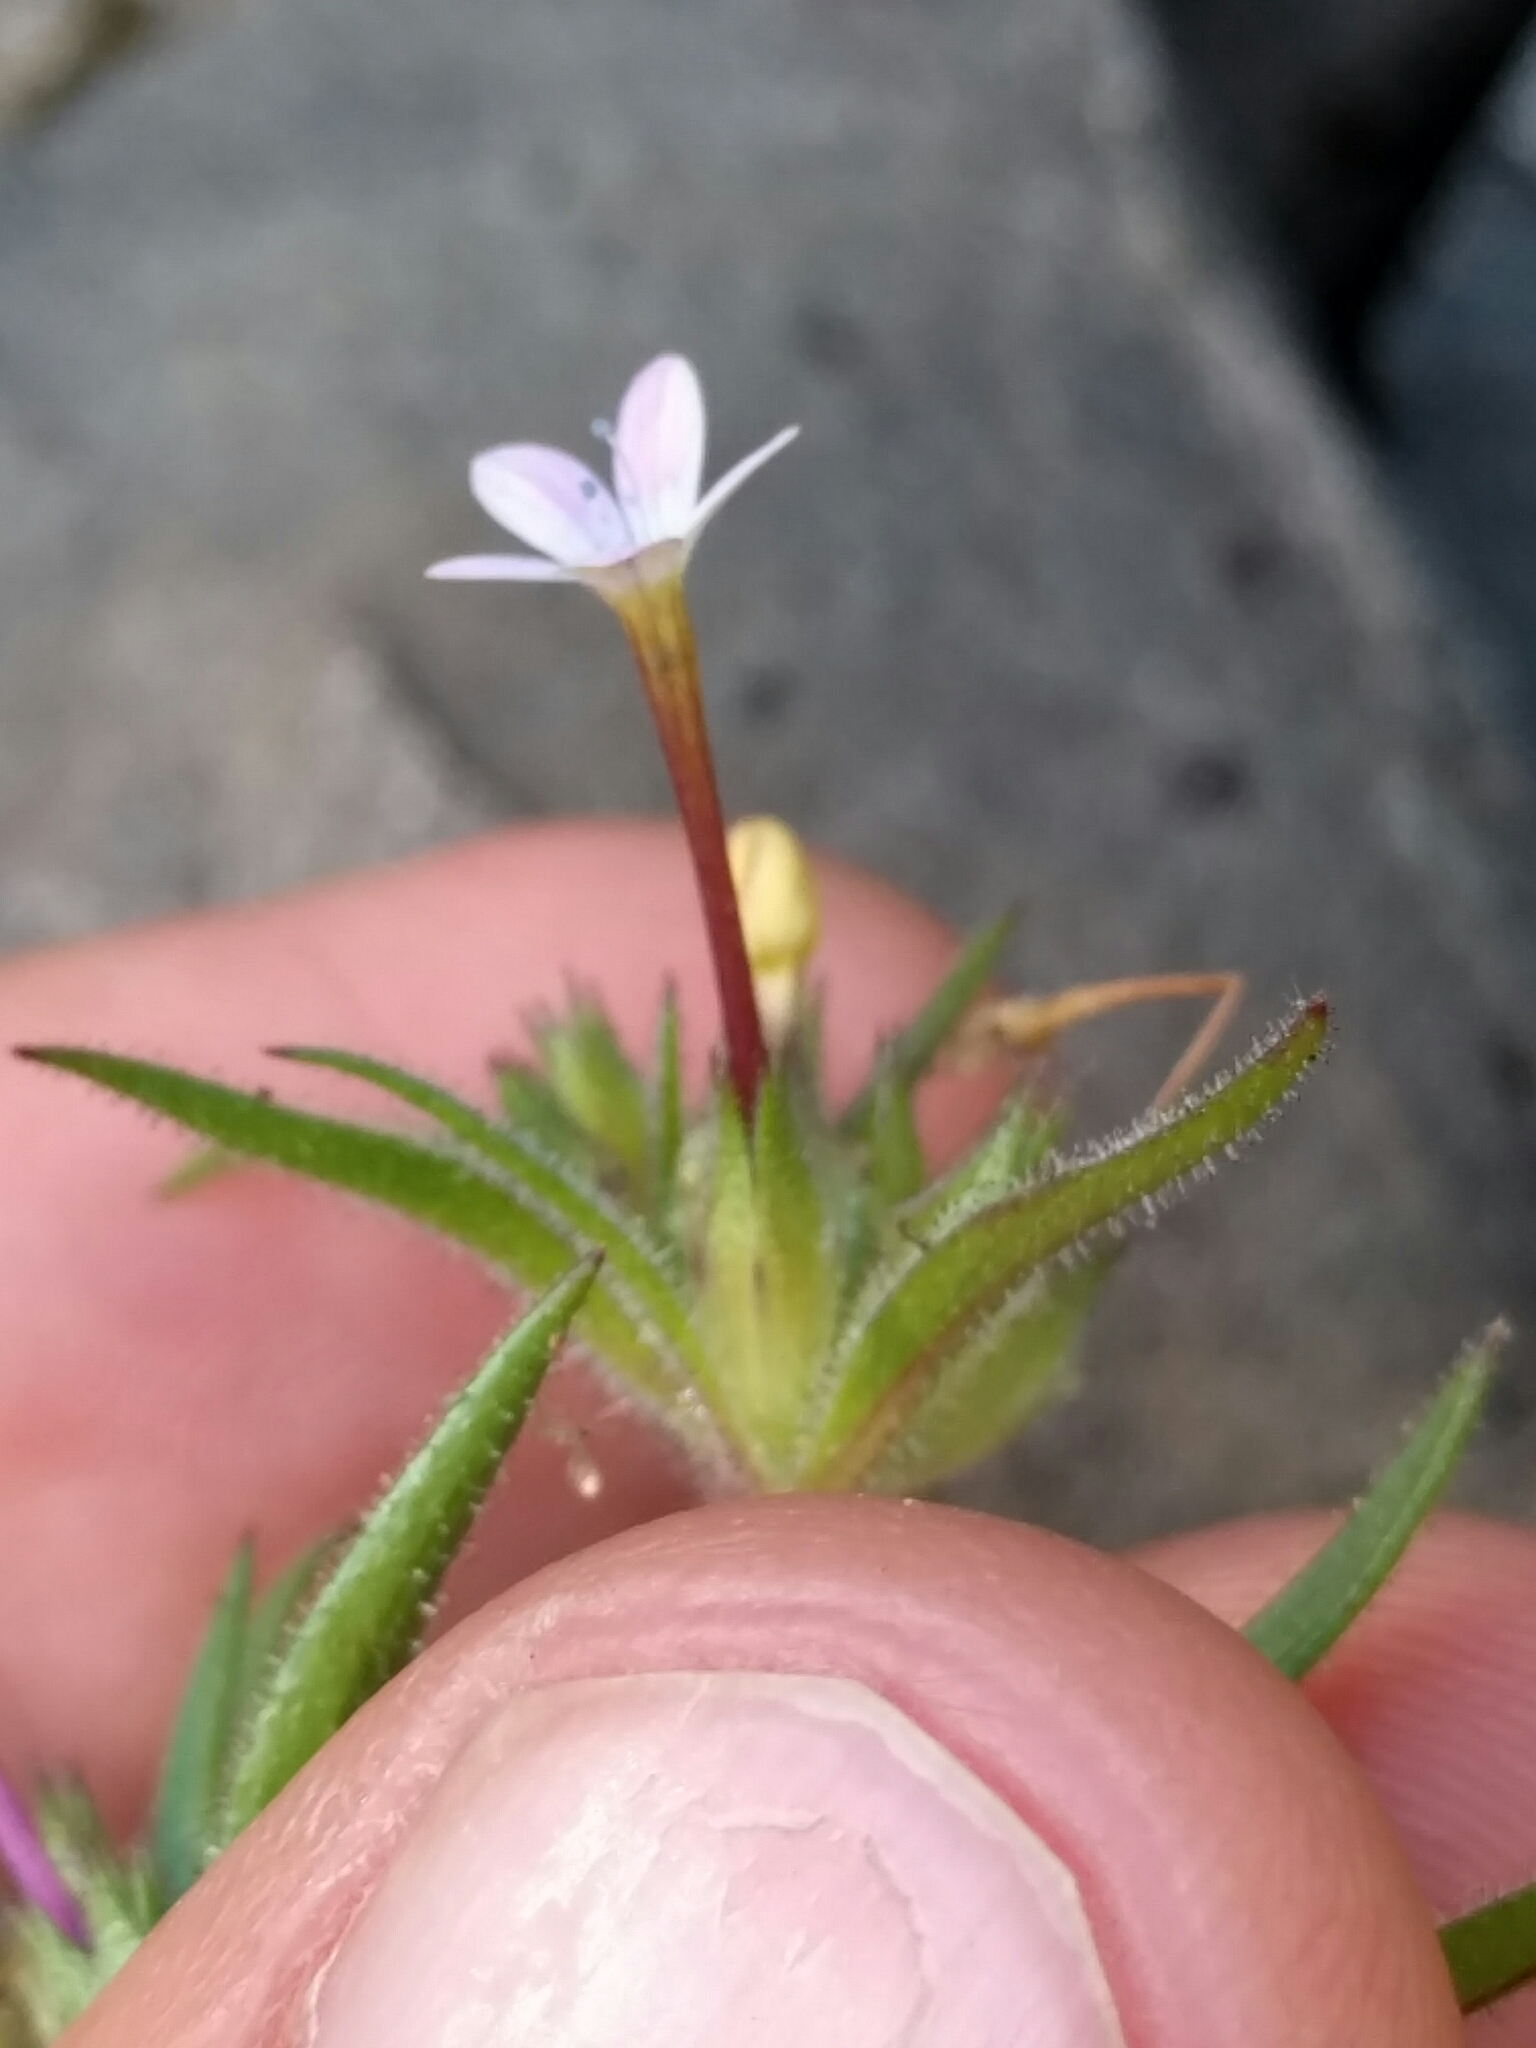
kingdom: Plantae
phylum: Tracheophyta
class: Magnoliopsida
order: Ericales
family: Polemoniaceae
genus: Collomia
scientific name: Collomia tinctoria
